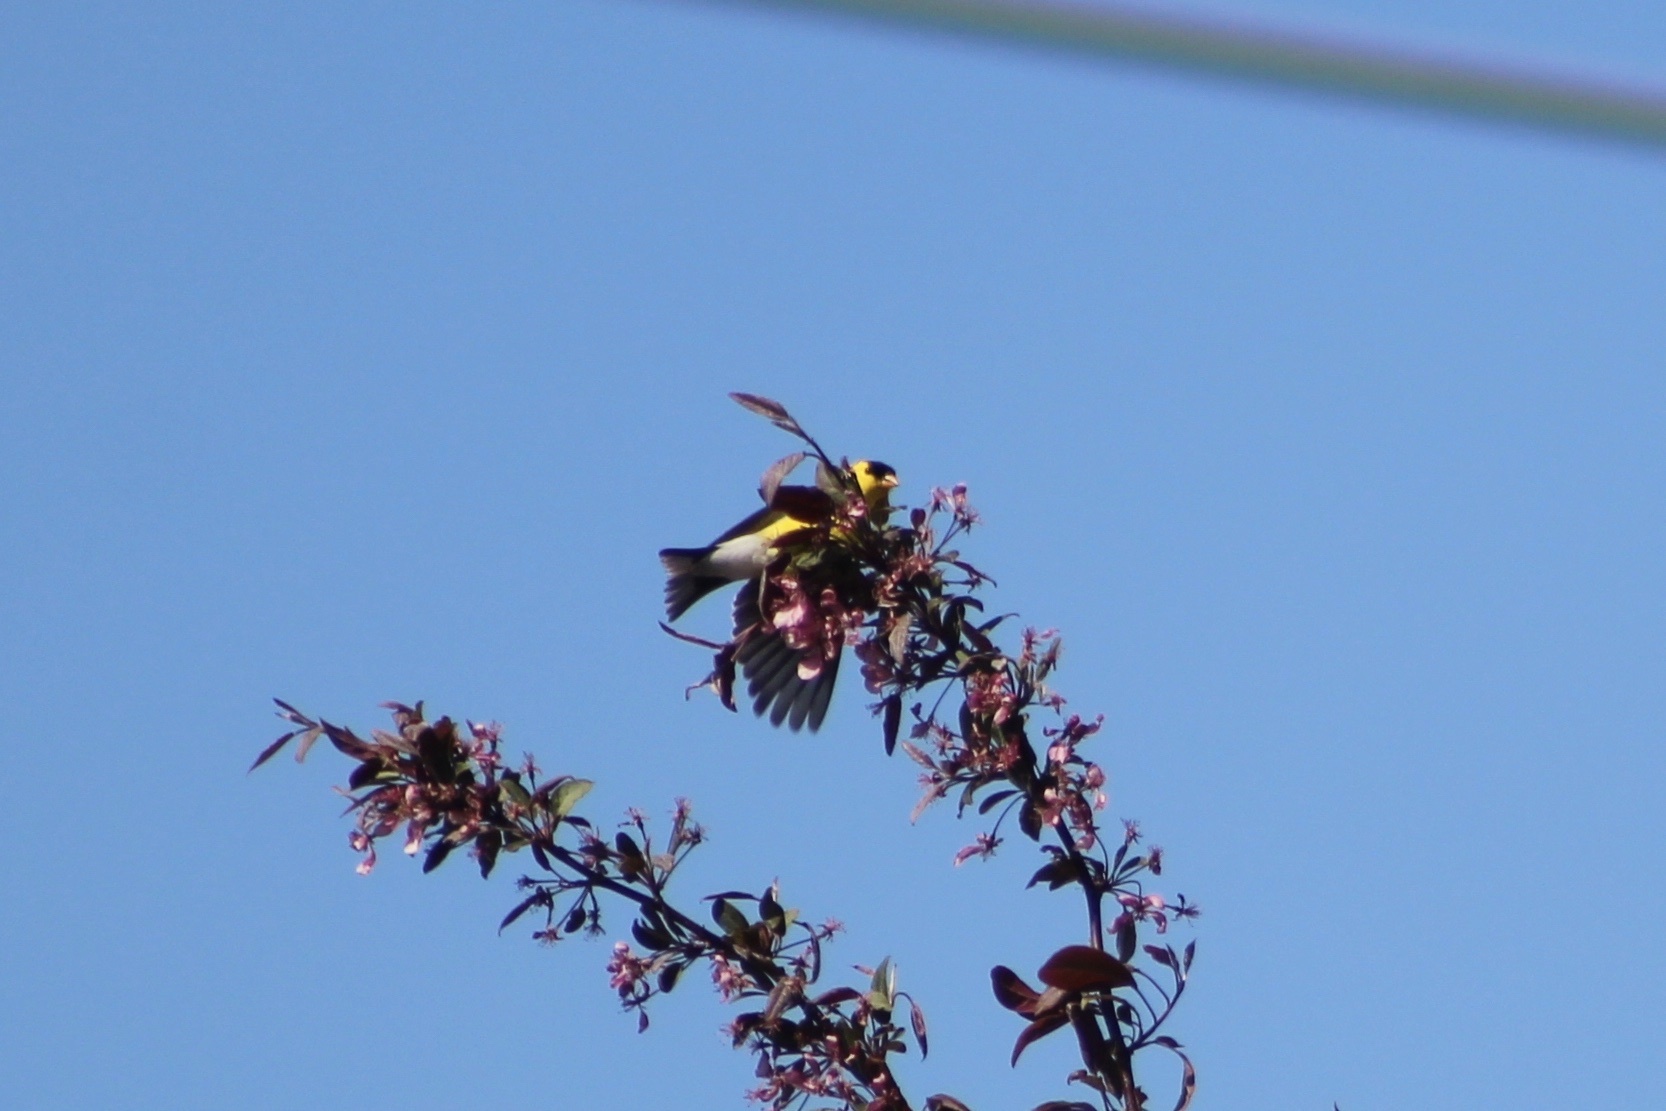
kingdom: Animalia
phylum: Chordata
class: Aves
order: Passeriformes
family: Fringillidae
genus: Spinus
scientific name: Spinus tristis
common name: American goldfinch
